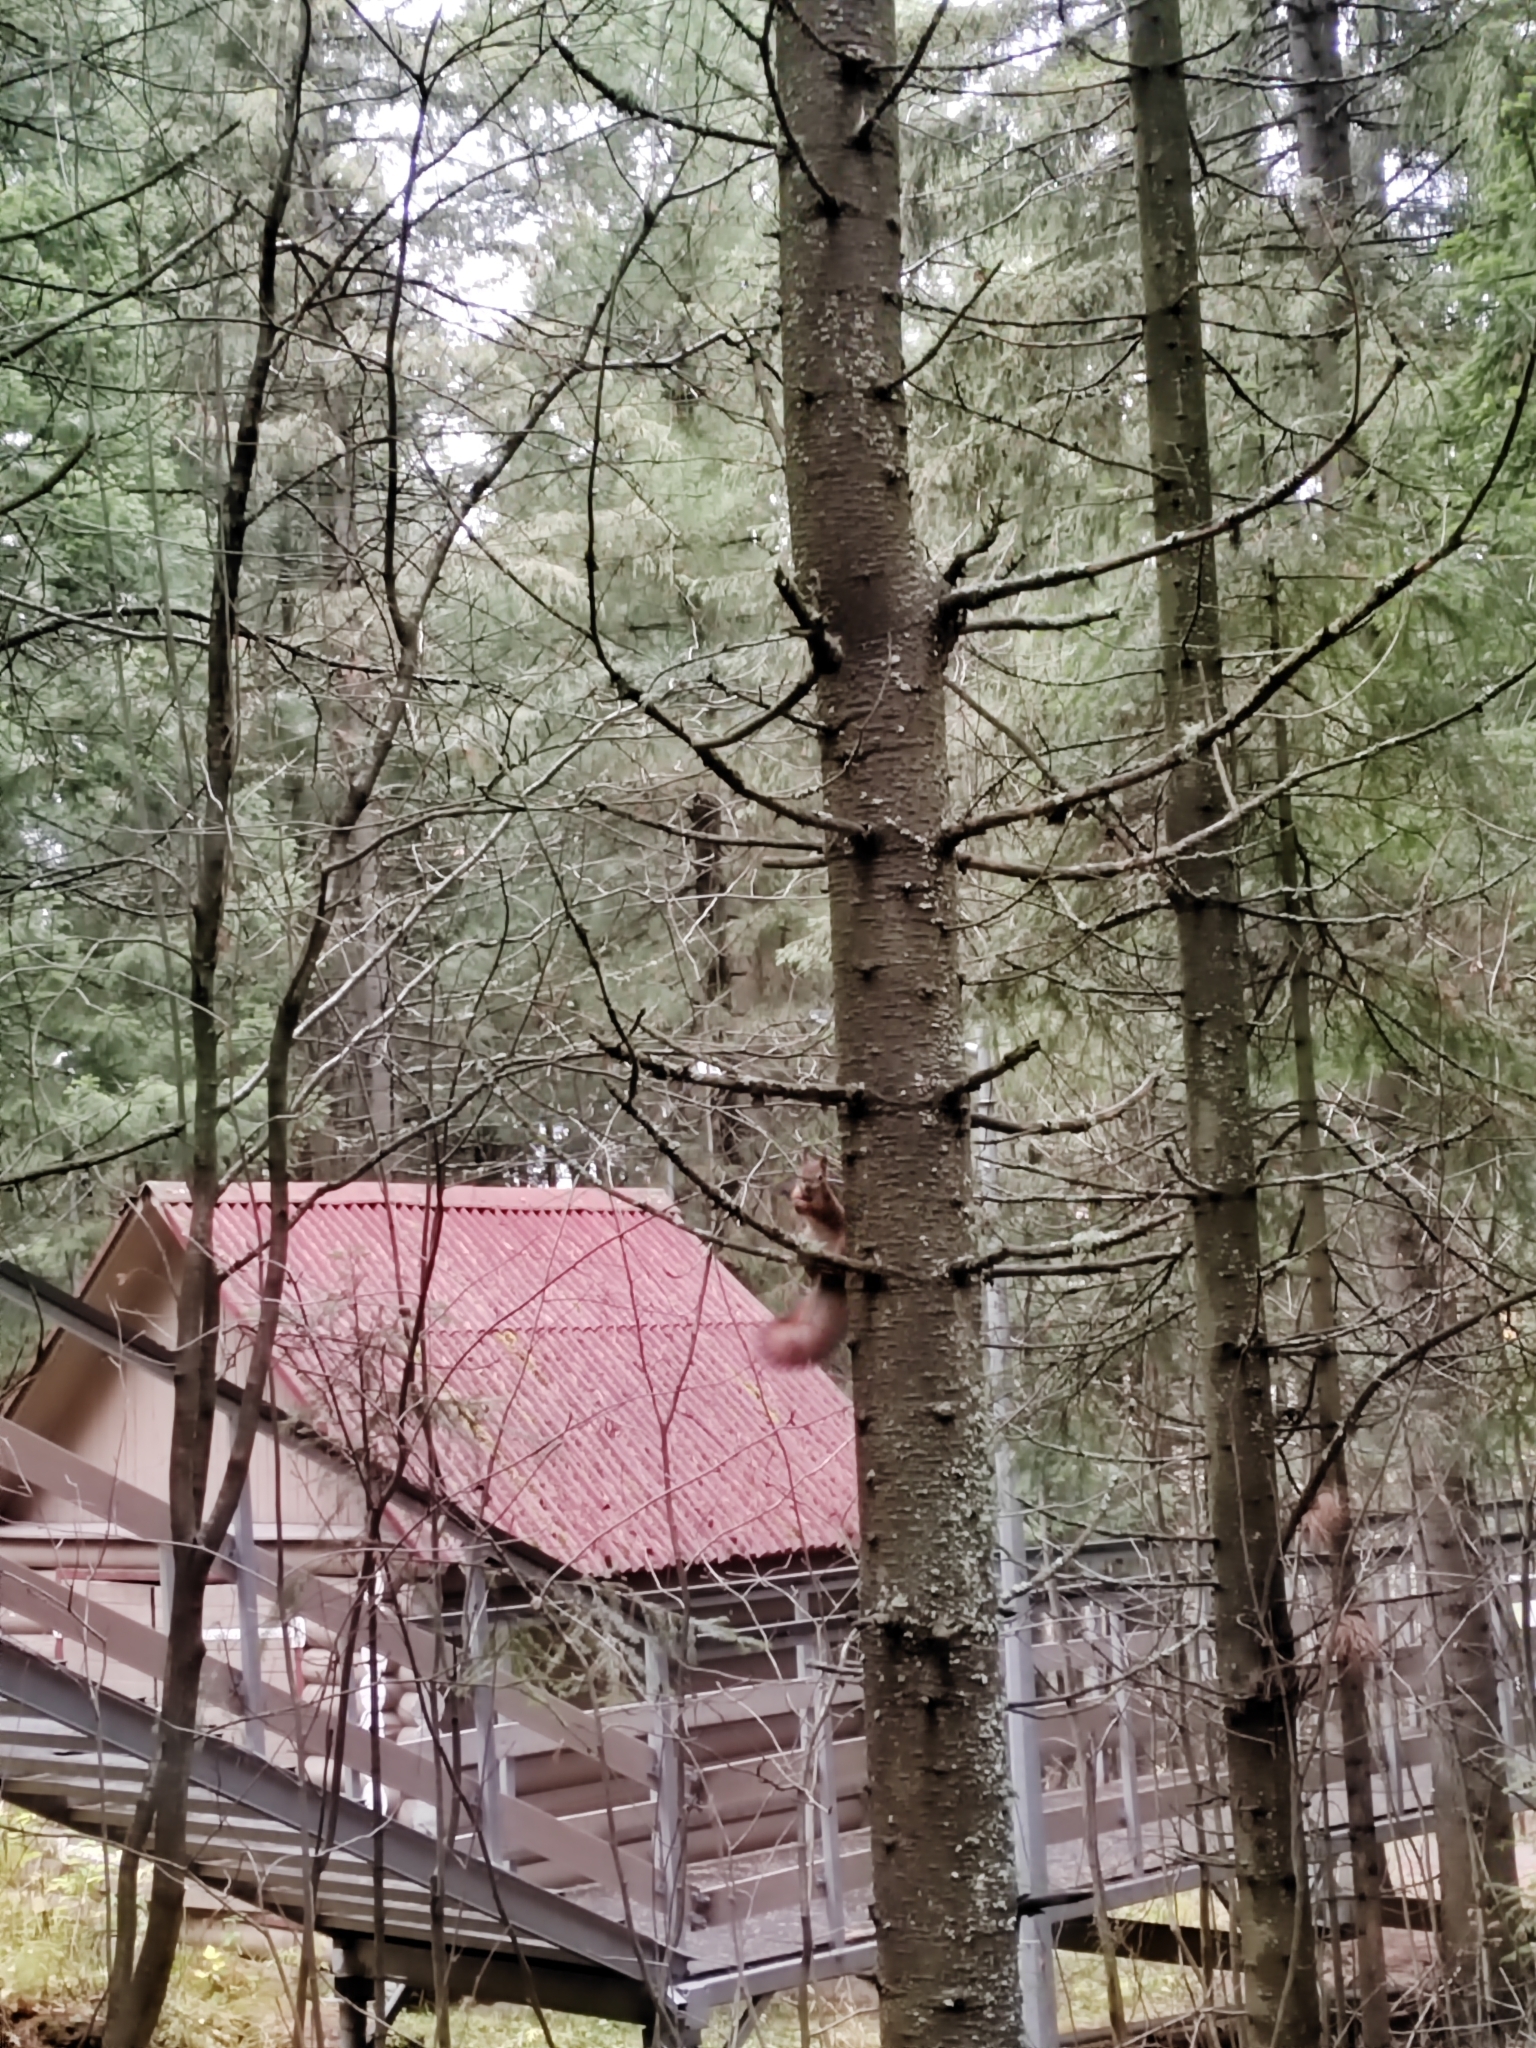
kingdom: Animalia
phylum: Chordata
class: Mammalia
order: Rodentia
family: Sciuridae
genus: Sciurus
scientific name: Sciurus vulgaris
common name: Eurasian red squirrel
